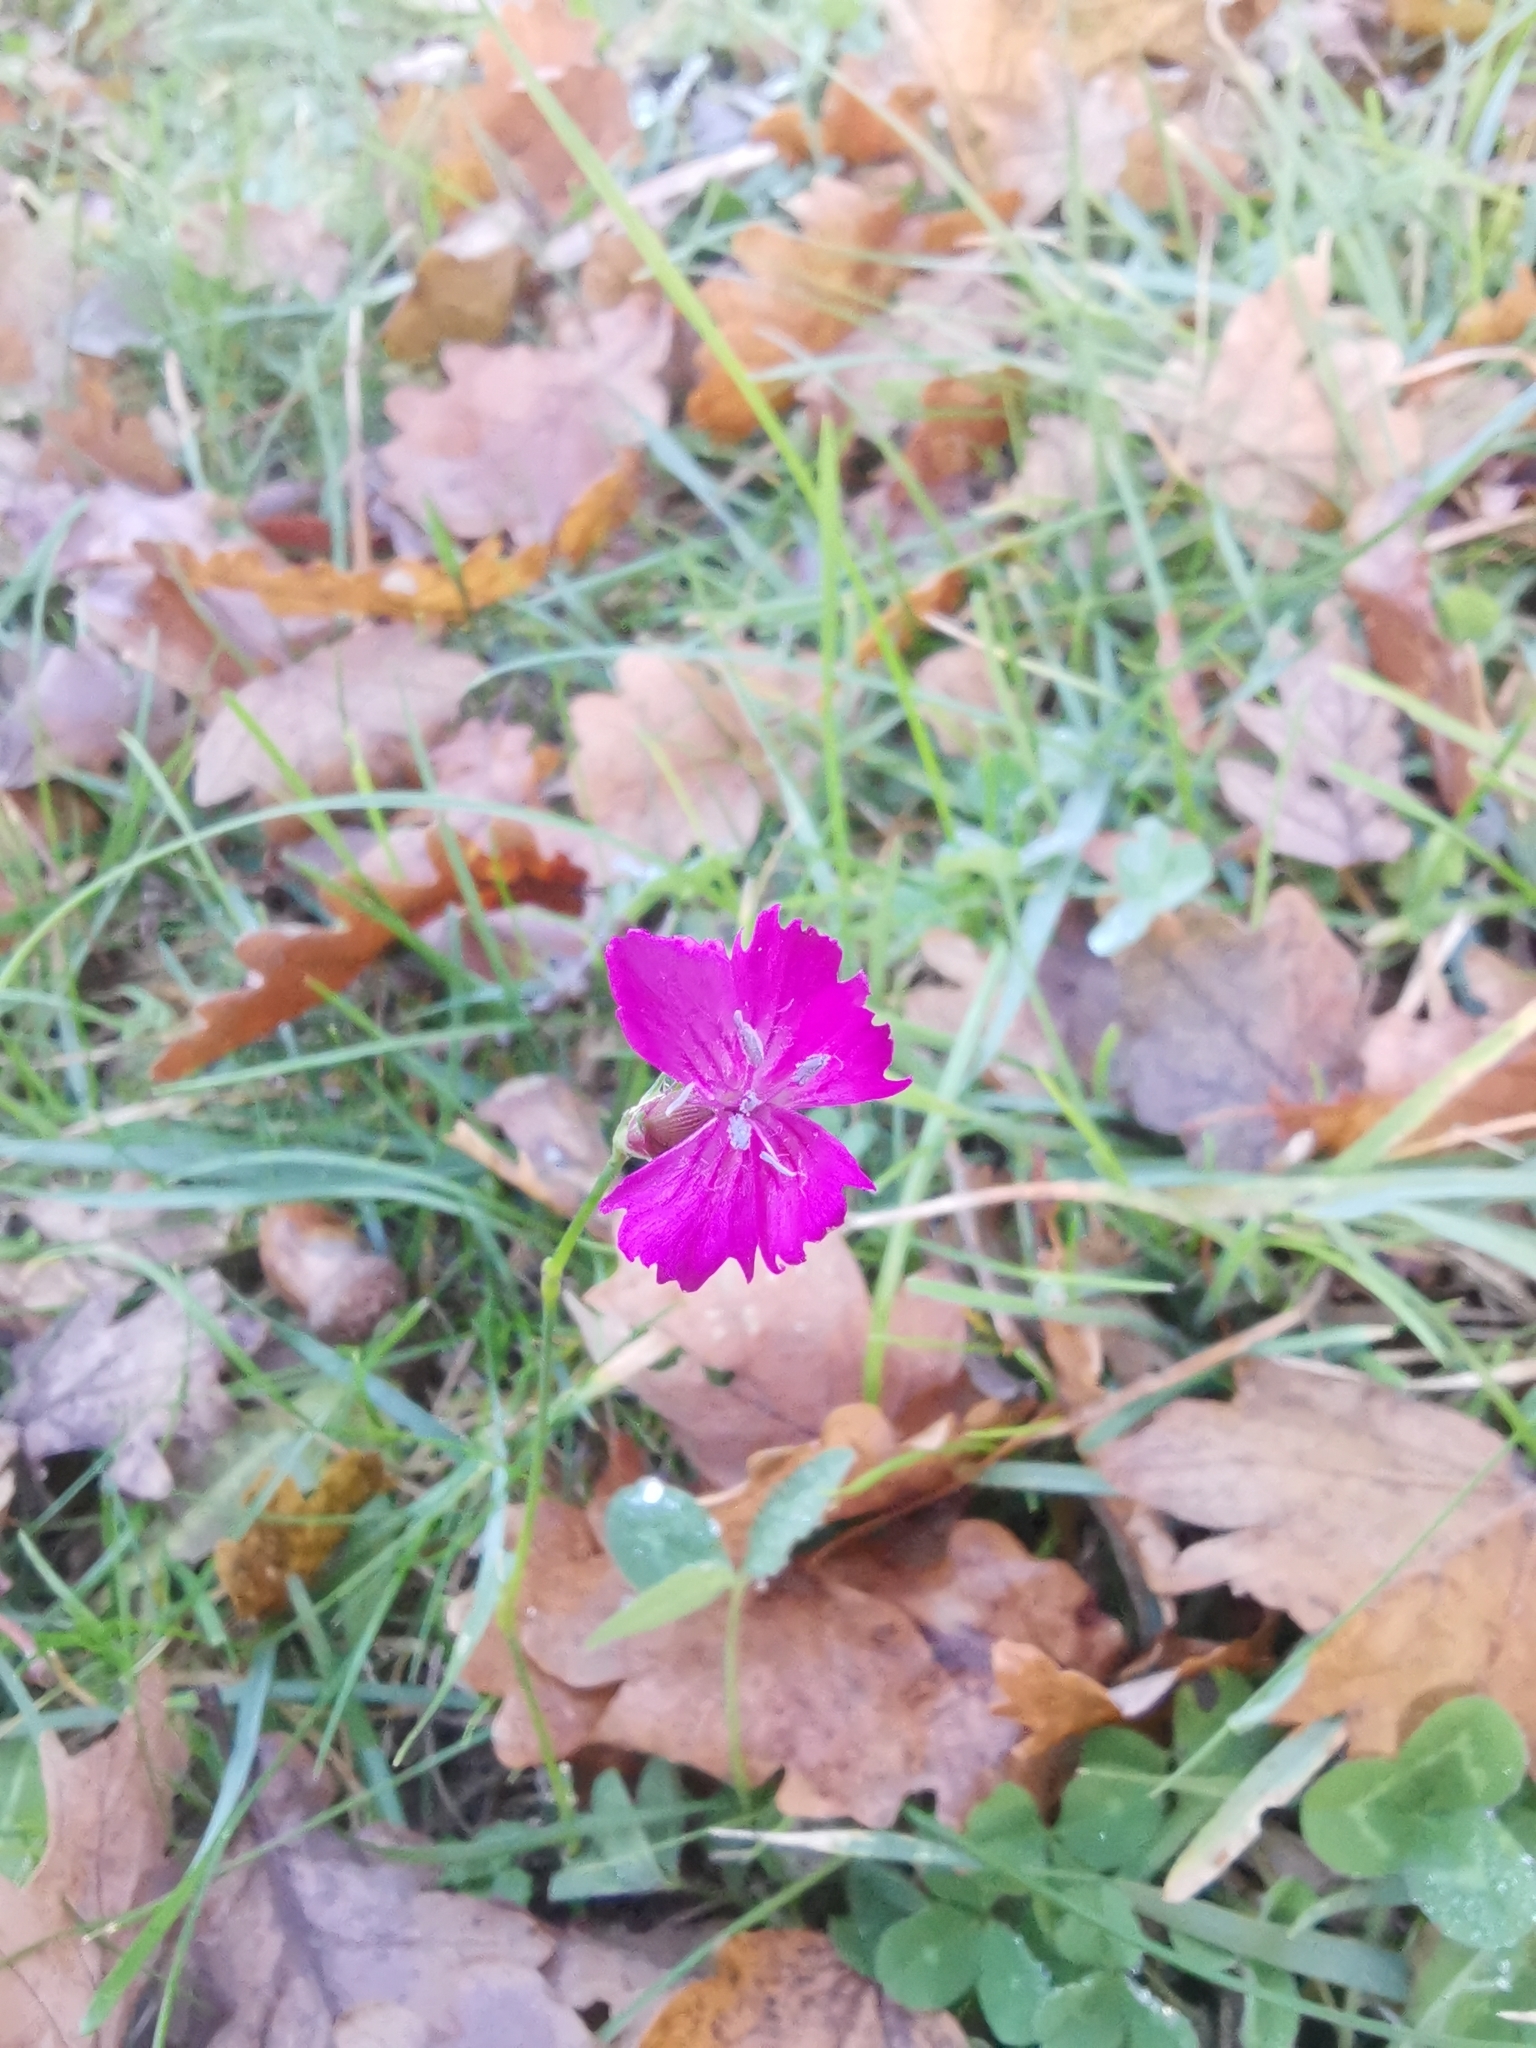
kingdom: Plantae
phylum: Tracheophyta
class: Magnoliopsida
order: Caryophyllales
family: Caryophyllaceae
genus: Dianthus
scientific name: Dianthus carthusianorum
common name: Carthusian pink
